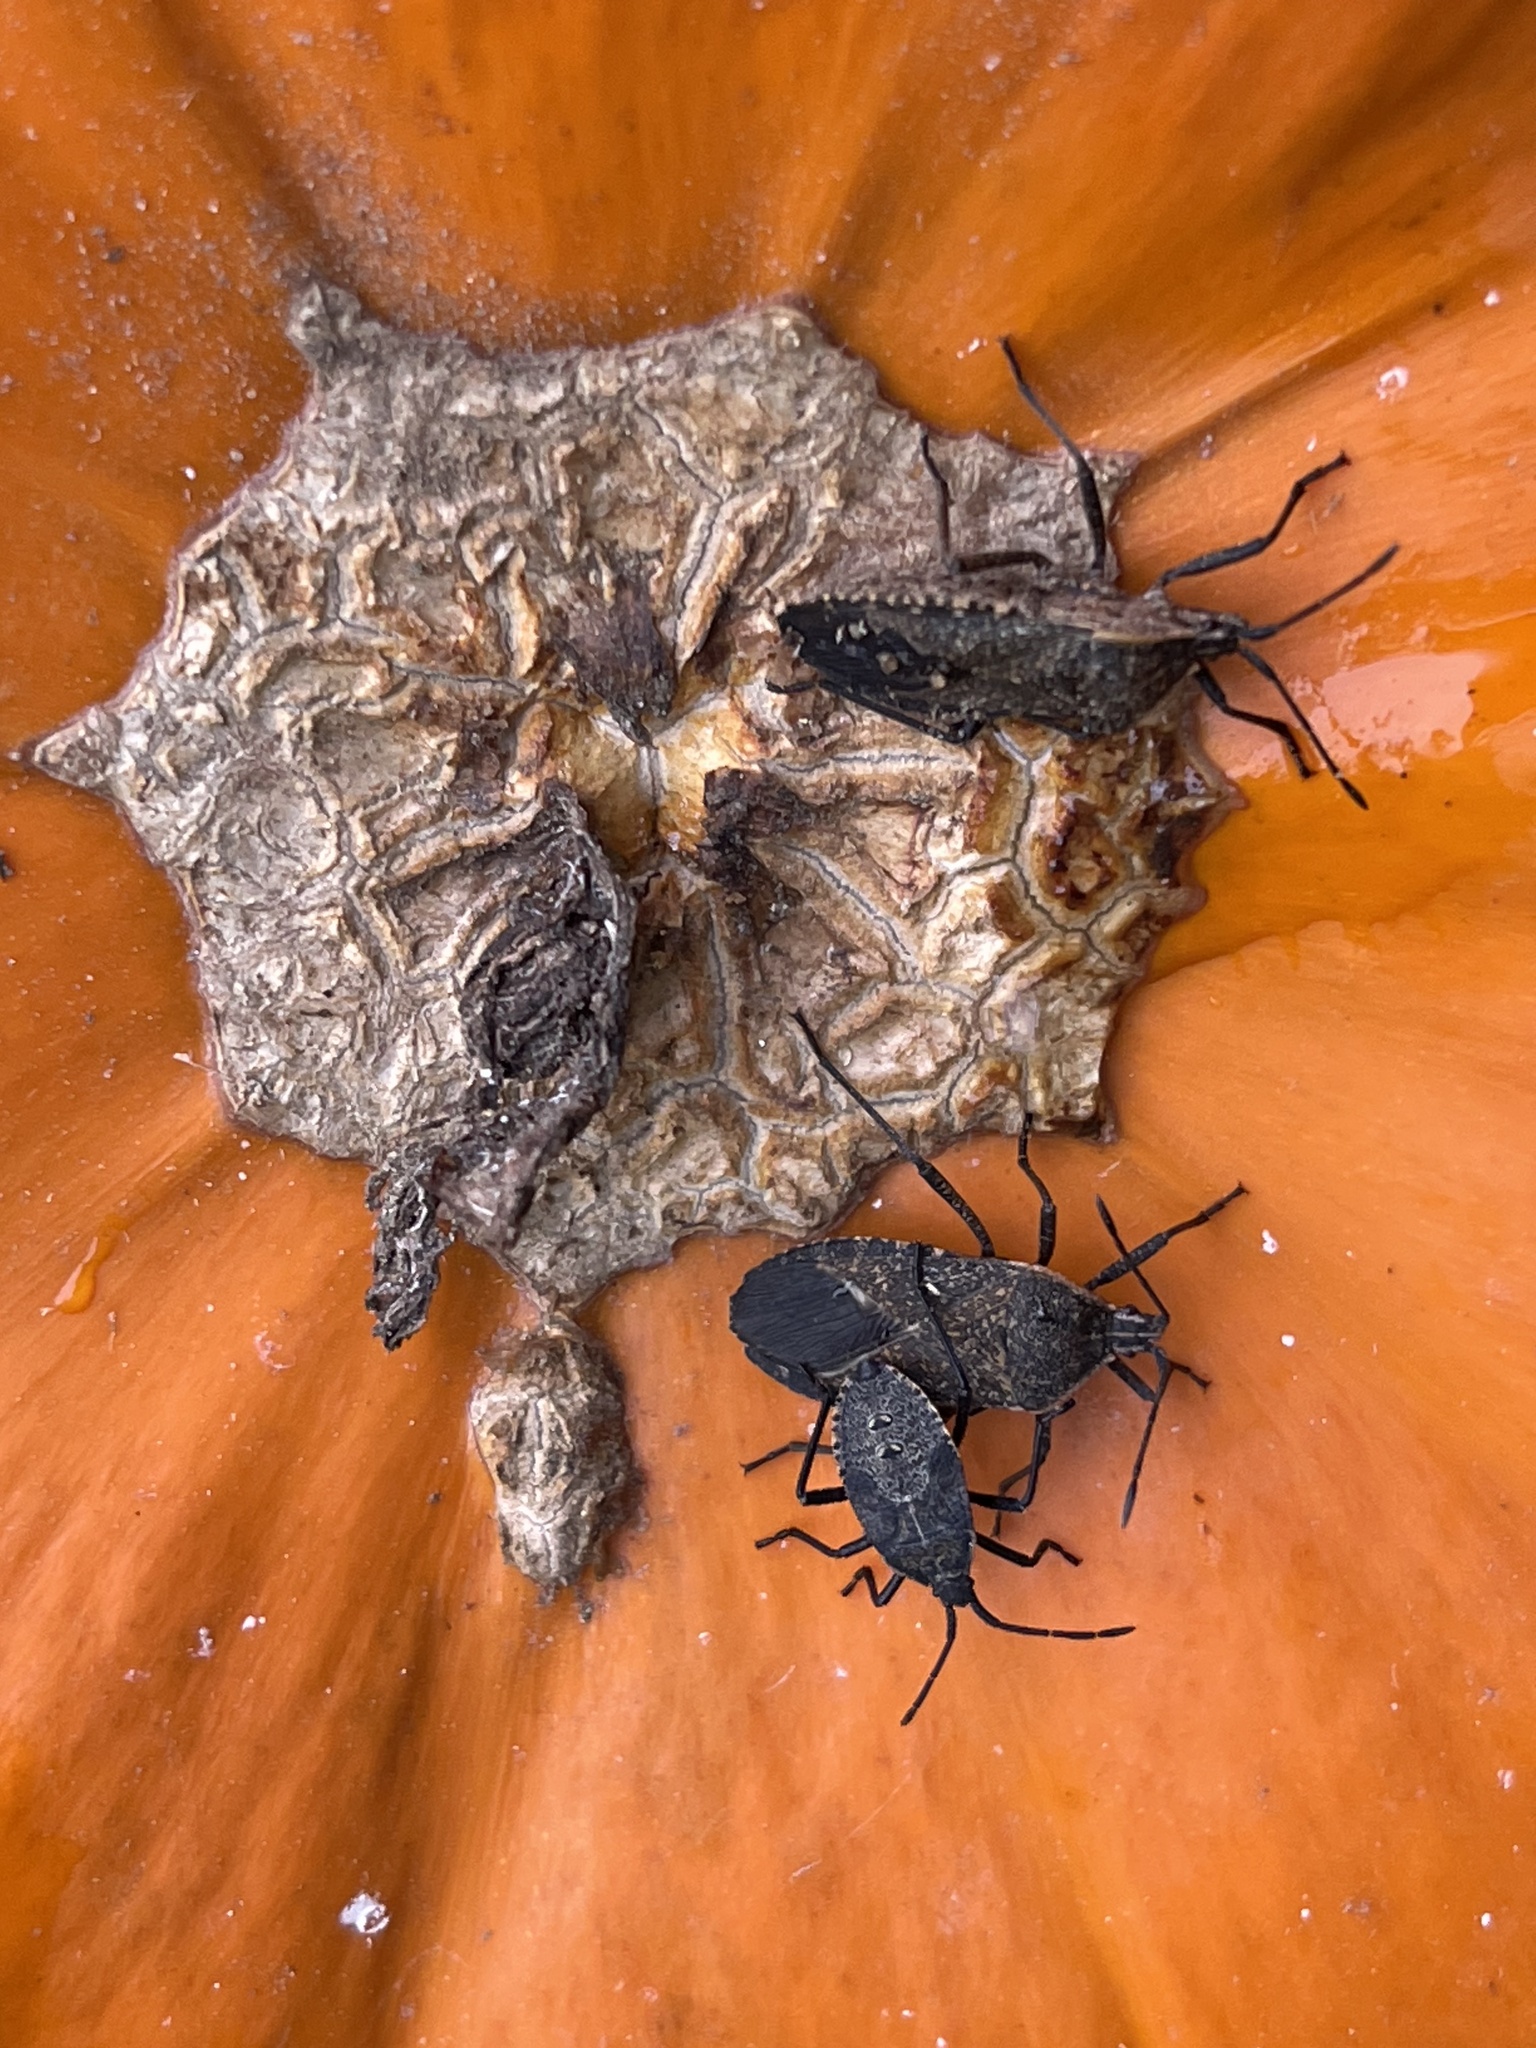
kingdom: Animalia
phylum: Arthropoda
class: Insecta
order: Hemiptera
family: Coreidae
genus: Anasa
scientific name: Anasa tristis
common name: Squash bug
